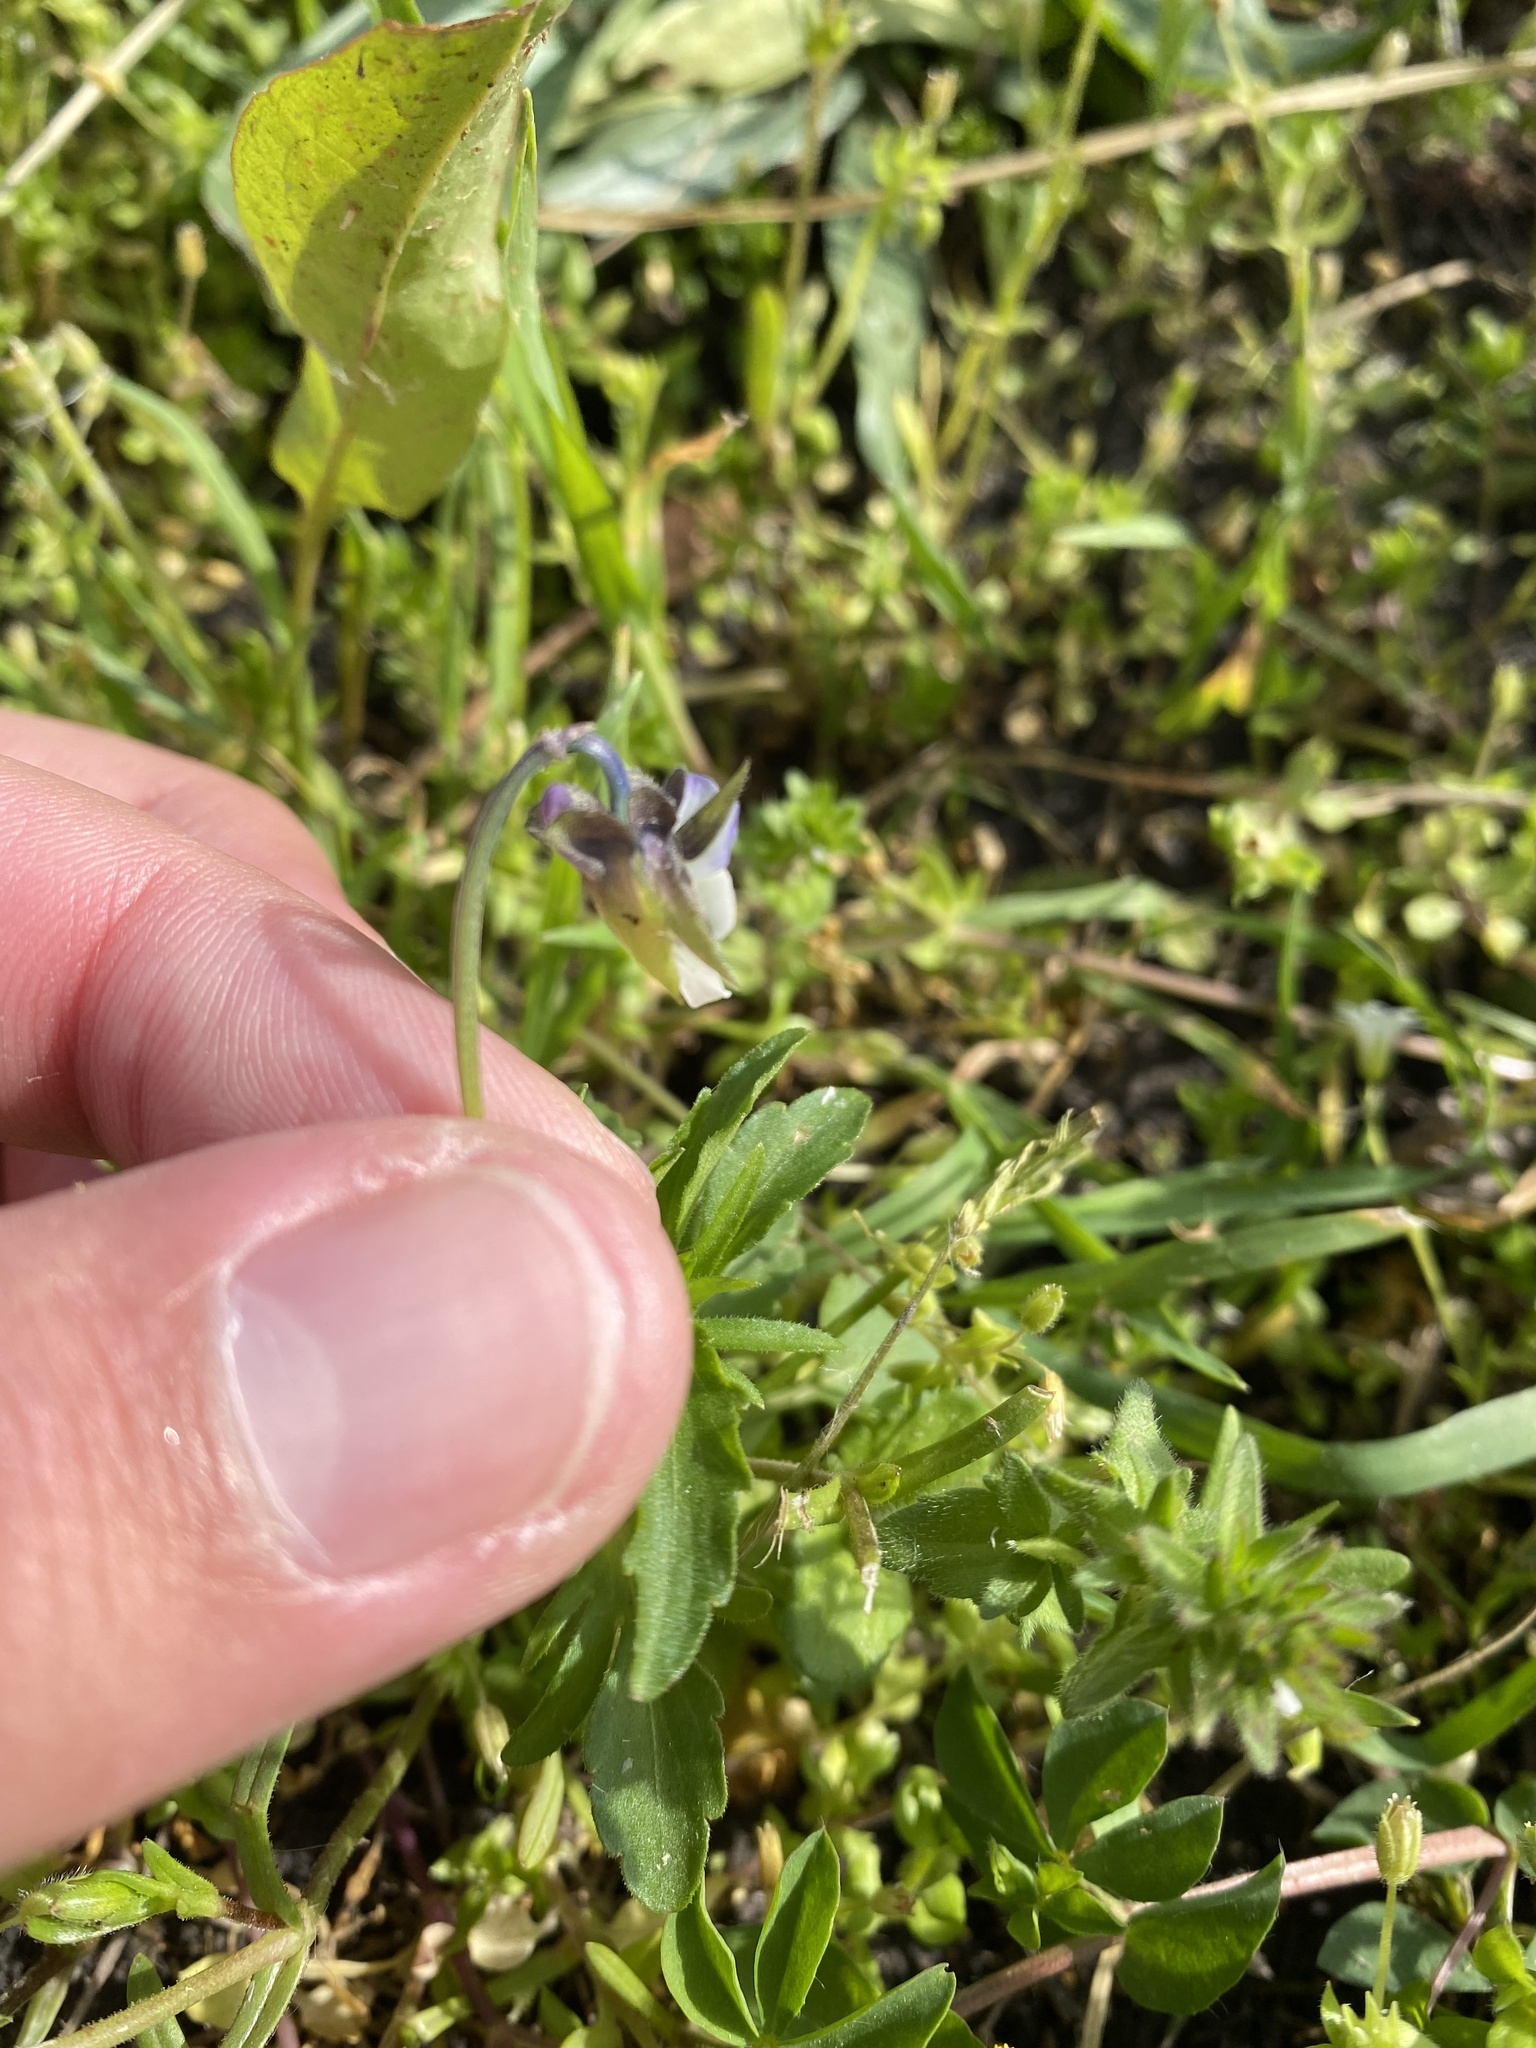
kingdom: Plantae
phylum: Tracheophyta
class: Magnoliopsida
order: Malpighiales
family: Violaceae
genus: Viola
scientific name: Viola arvensis
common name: Field pansy
